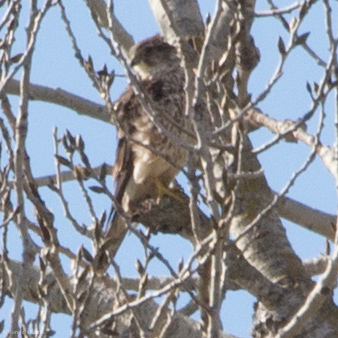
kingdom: Animalia
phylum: Chordata
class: Aves
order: Falconiformes
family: Falconidae
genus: Falco
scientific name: Falco mexicanus
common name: Prairie falcon
